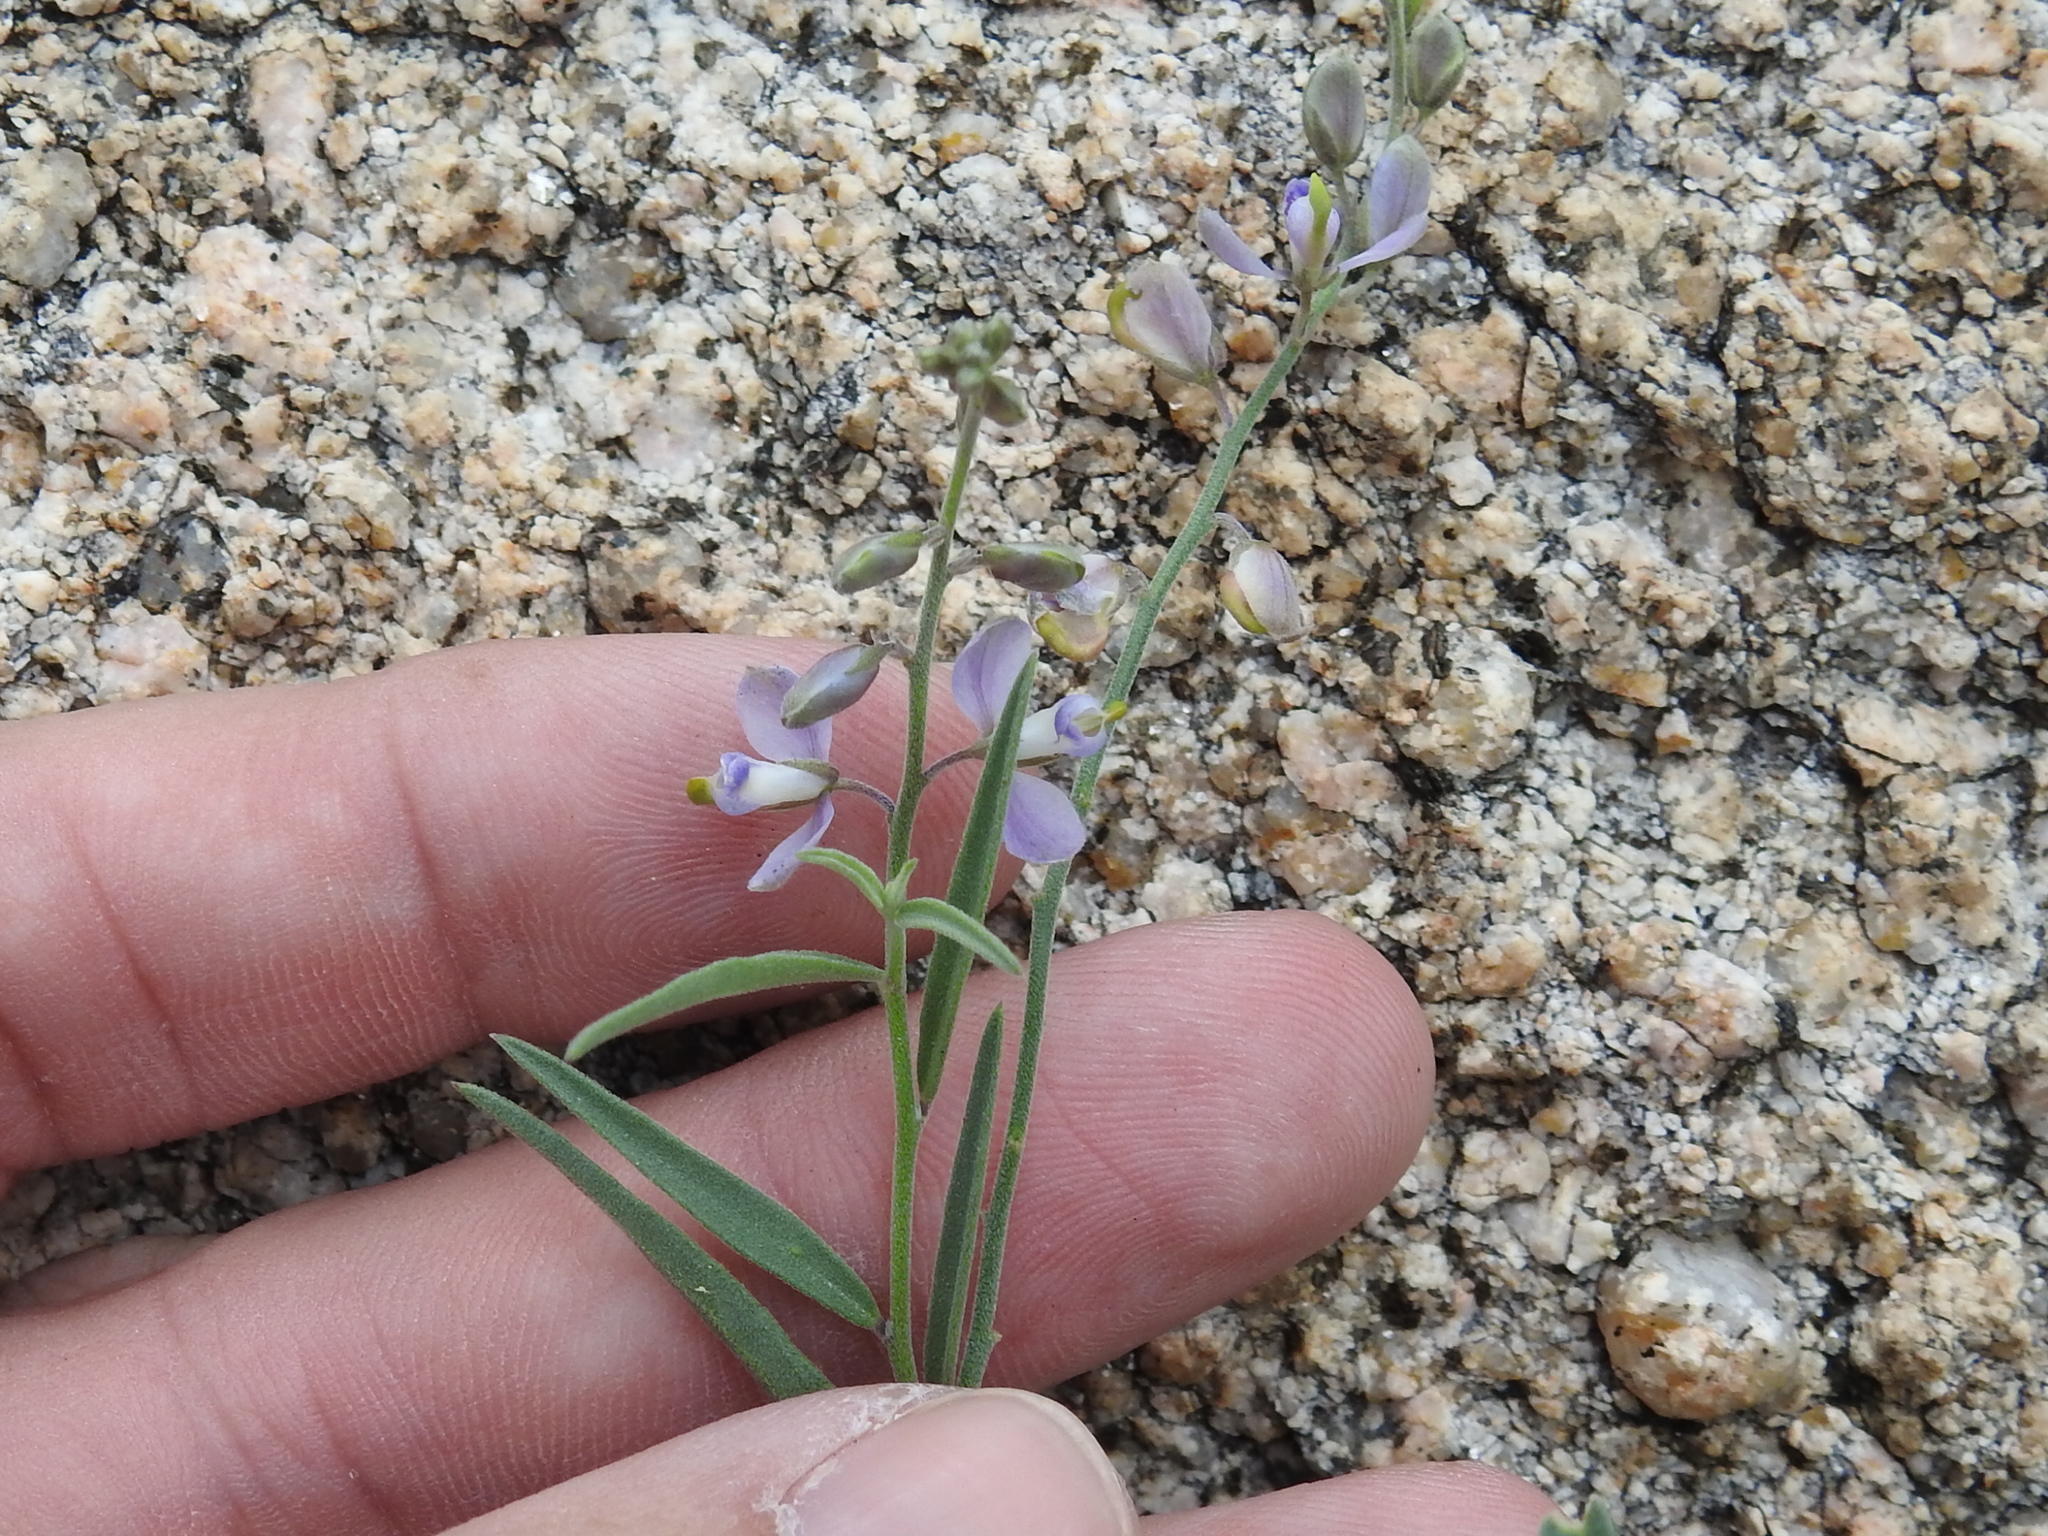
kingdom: Plantae
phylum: Tracheophyta
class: Magnoliopsida
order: Fabales
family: Polygalaceae
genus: Hebecarpa
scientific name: Hebecarpa barbeyana
